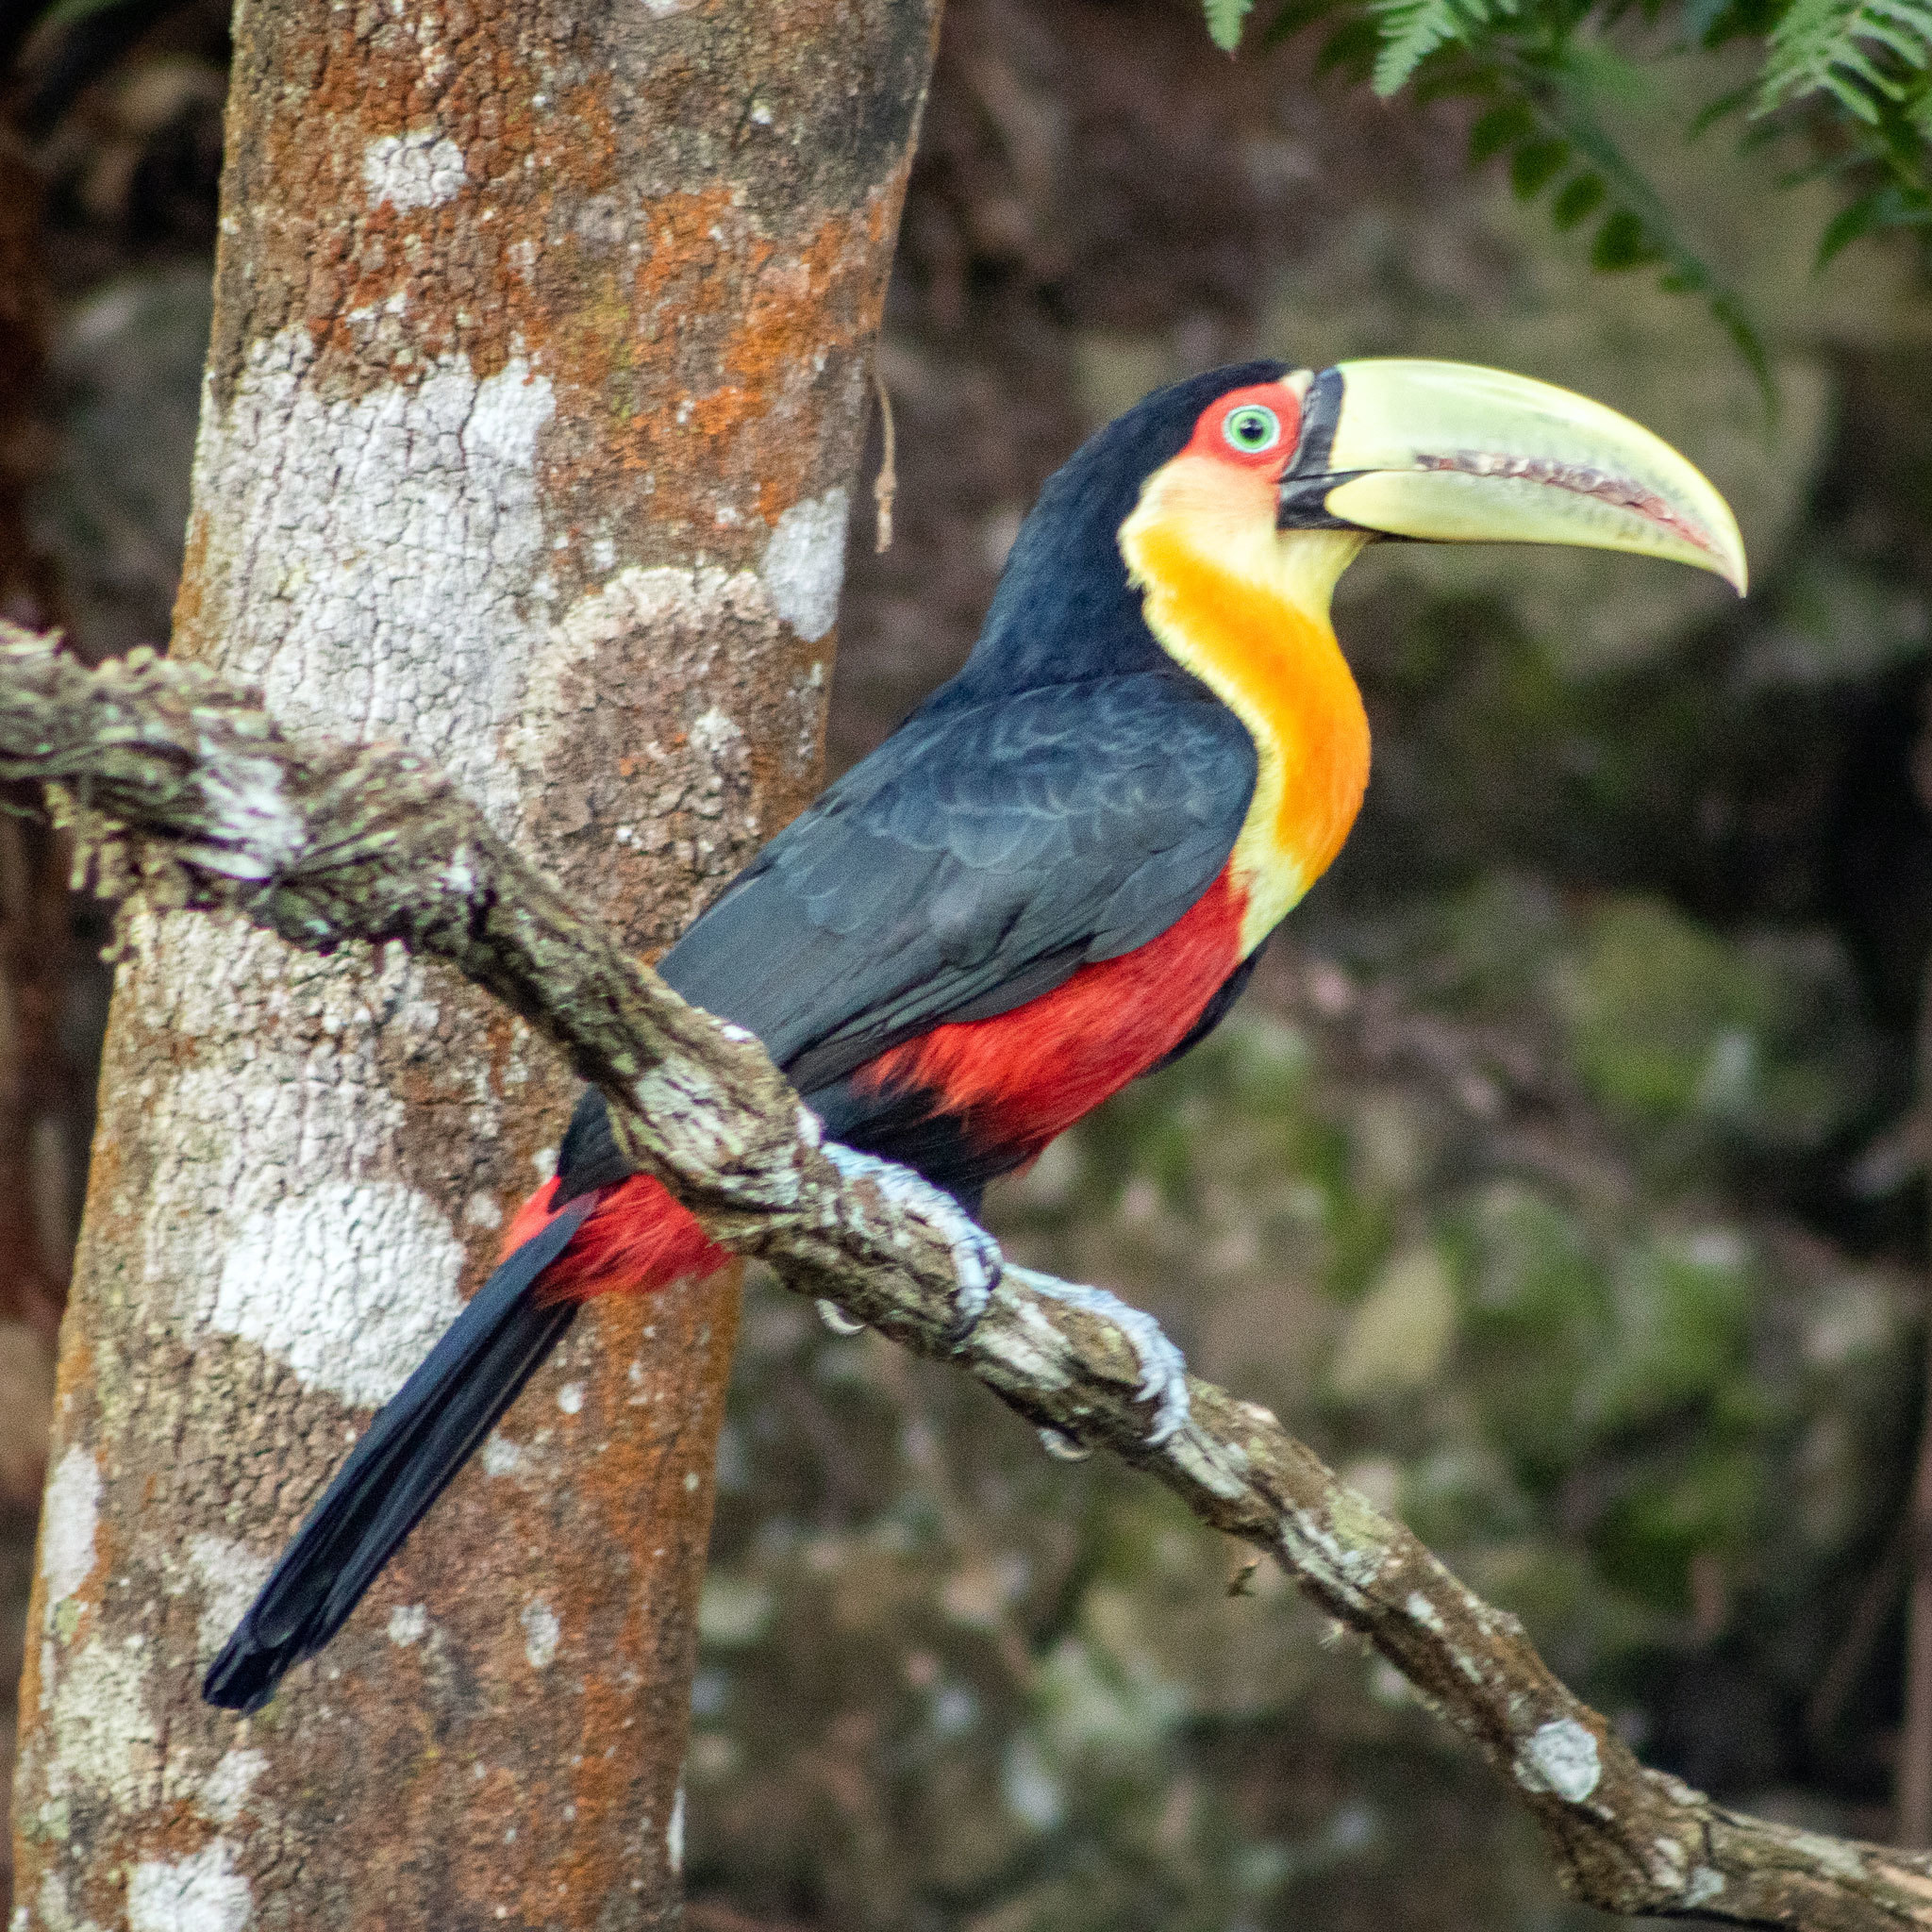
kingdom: Animalia
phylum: Chordata
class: Aves
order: Piciformes
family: Ramphastidae
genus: Ramphastos
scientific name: Ramphastos dicolorus
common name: Green-billed toucan
